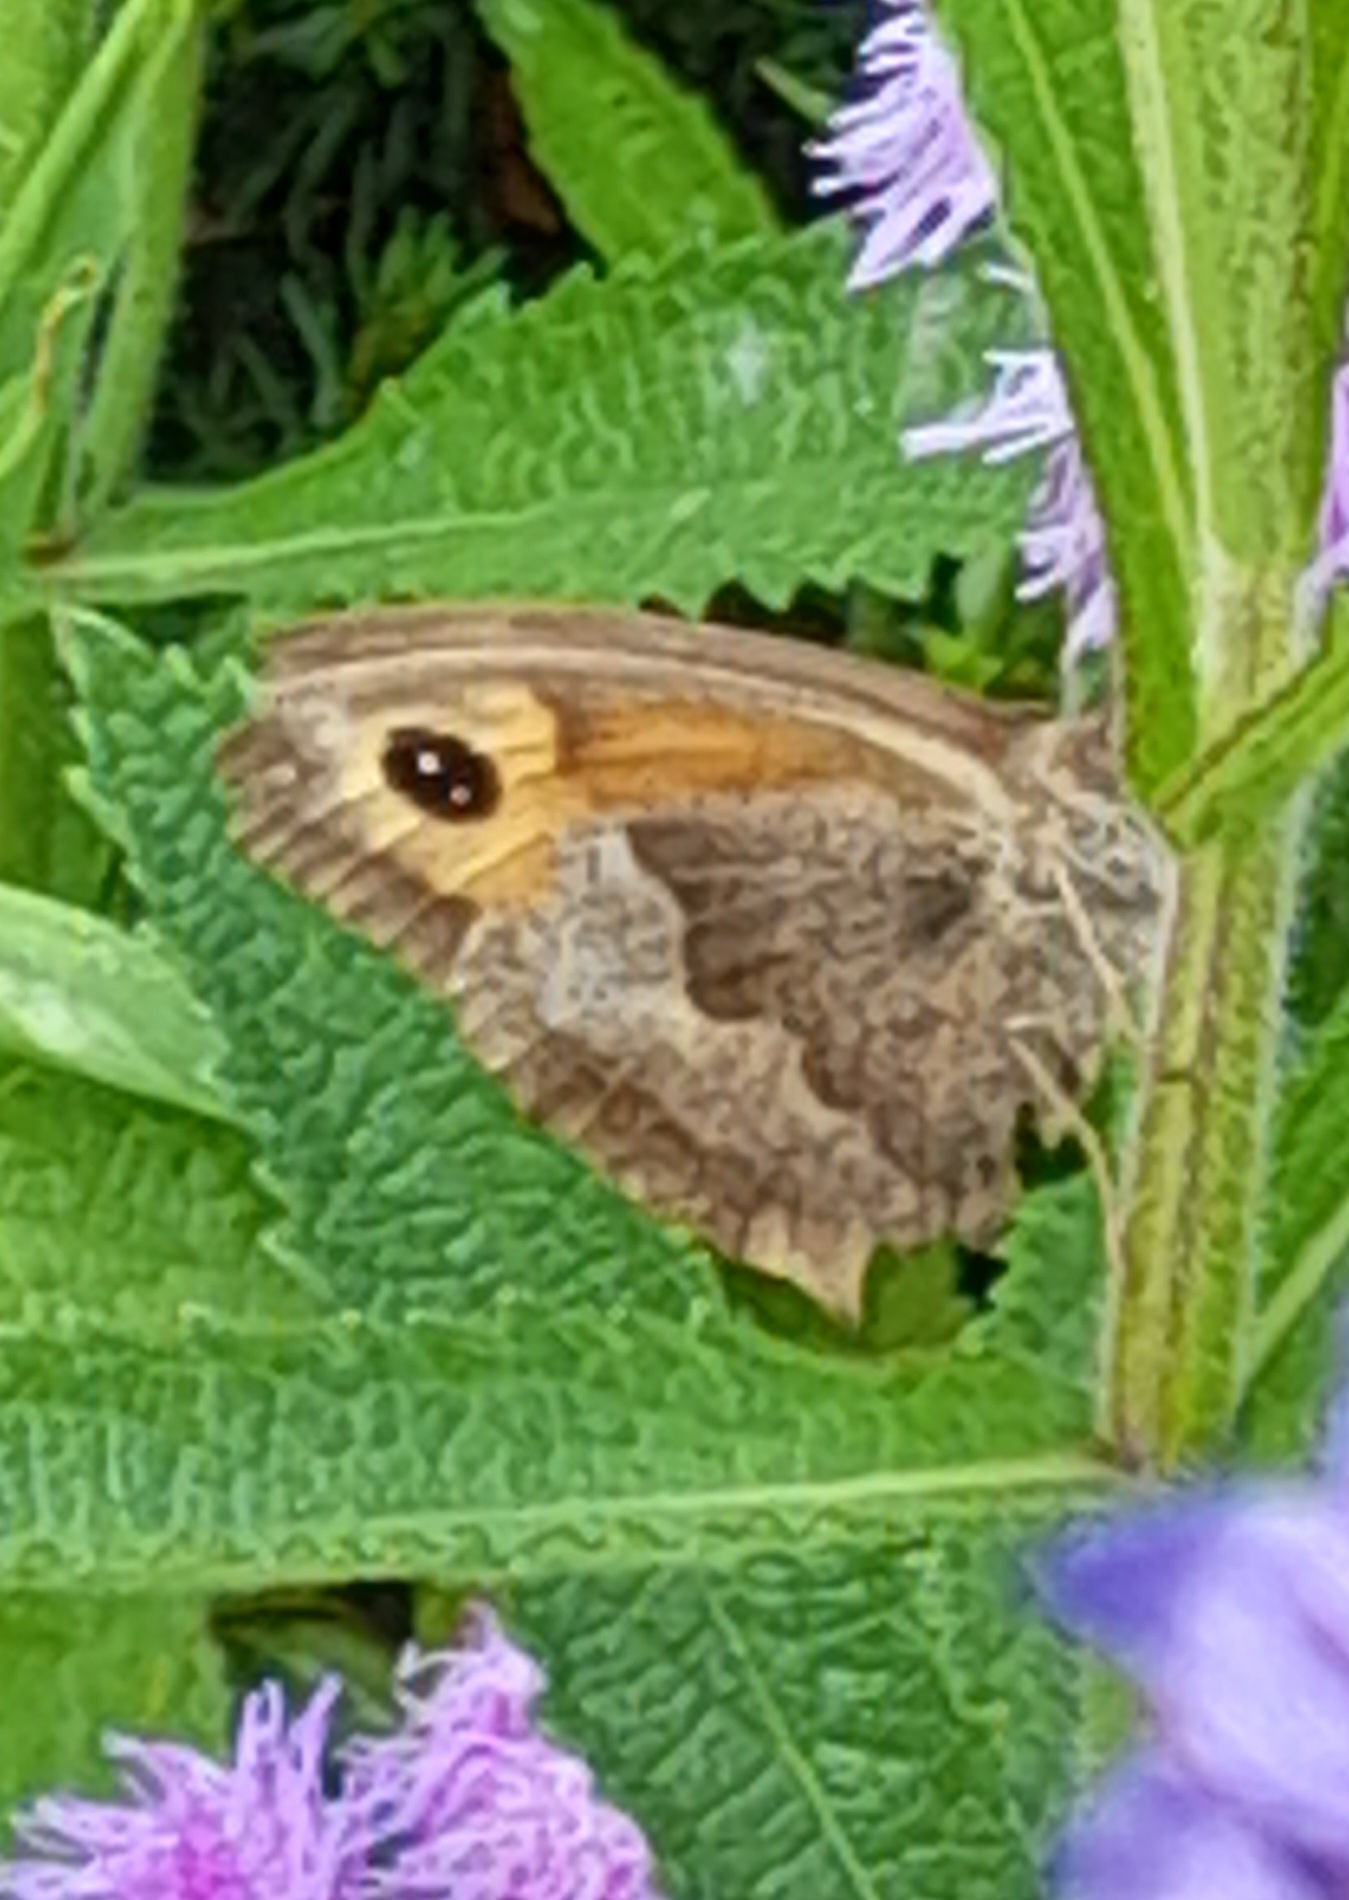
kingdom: Animalia
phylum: Arthropoda
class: Insecta
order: Lepidoptera
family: Nymphalidae
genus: Maniola
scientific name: Maniola jurtina
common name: Meadow brown
